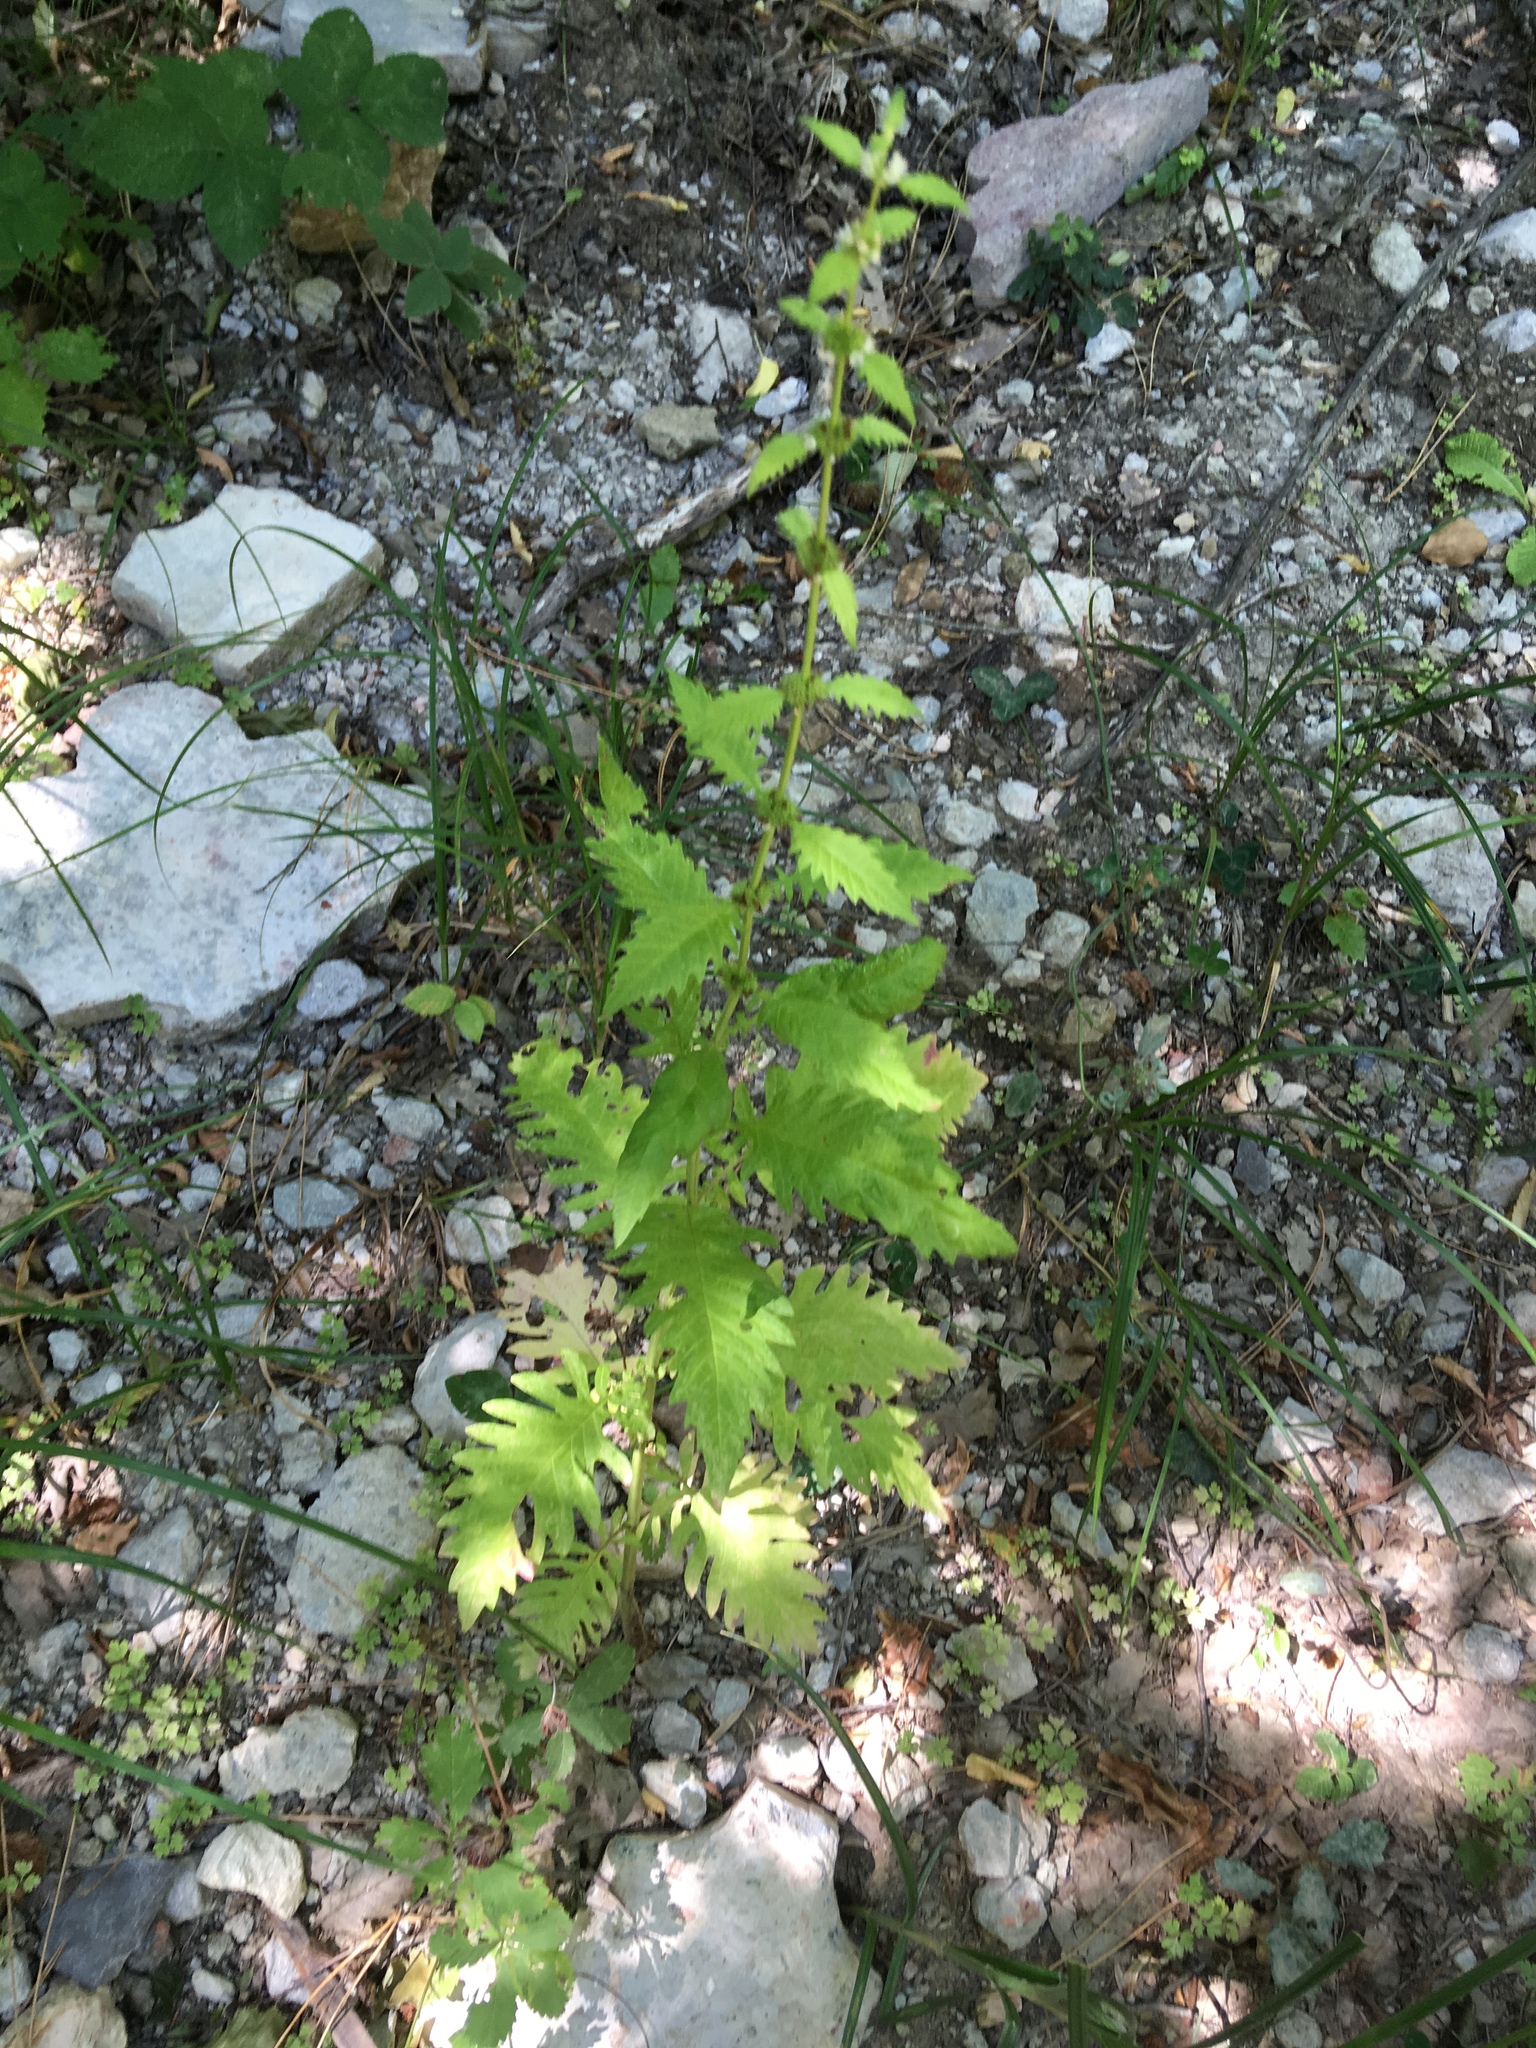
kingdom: Plantae
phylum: Tracheophyta
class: Magnoliopsida
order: Lamiales
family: Lamiaceae
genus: Lycopus
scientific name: Lycopus europaeus
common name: European bugleweed
